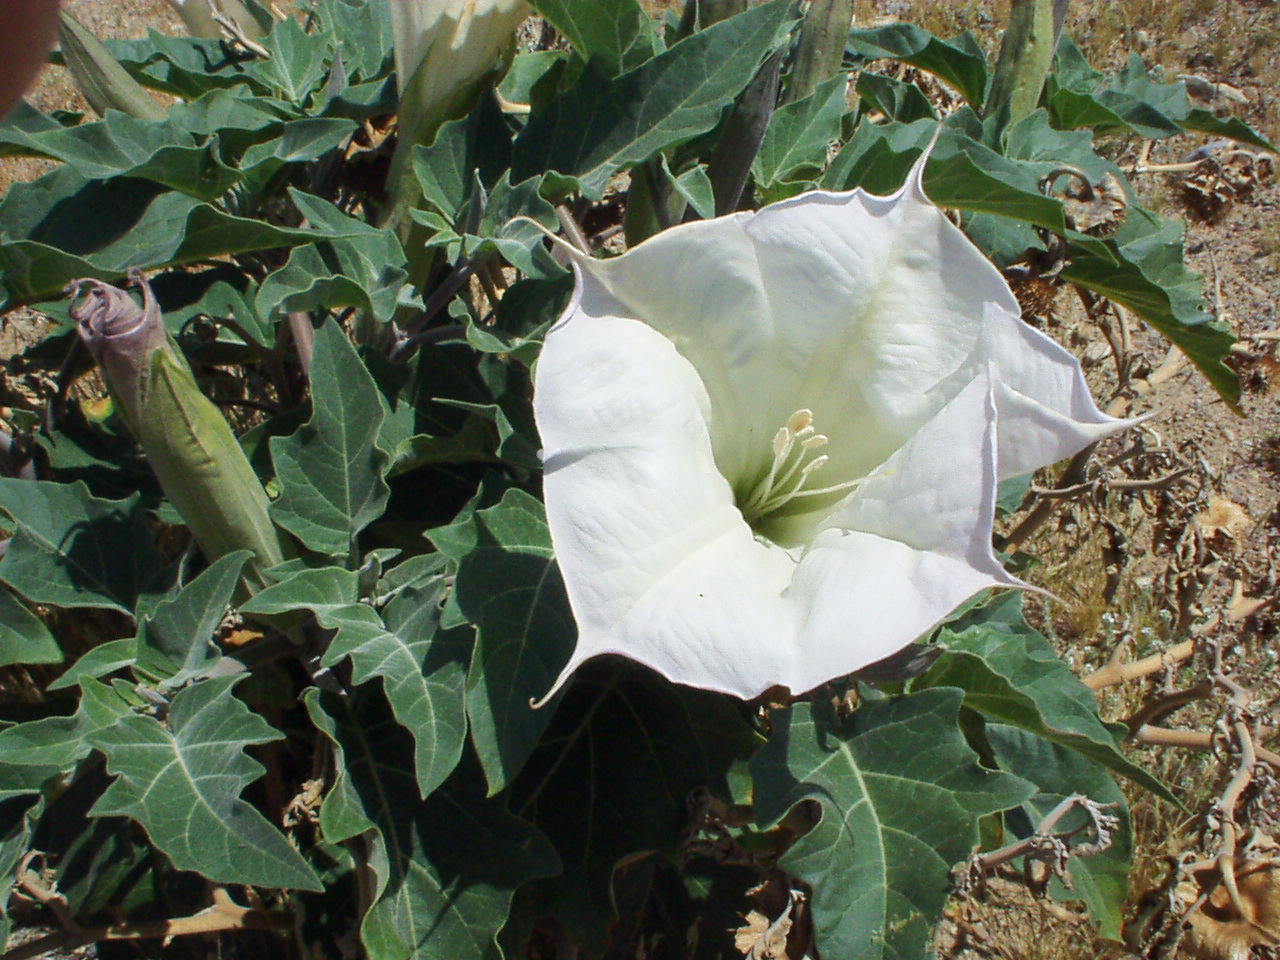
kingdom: Plantae
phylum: Tracheophyta
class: Magnoliopsida
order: Solanales
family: Solanaceae
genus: Datura
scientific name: Datura wrightii
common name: Sacred thorn-apple
